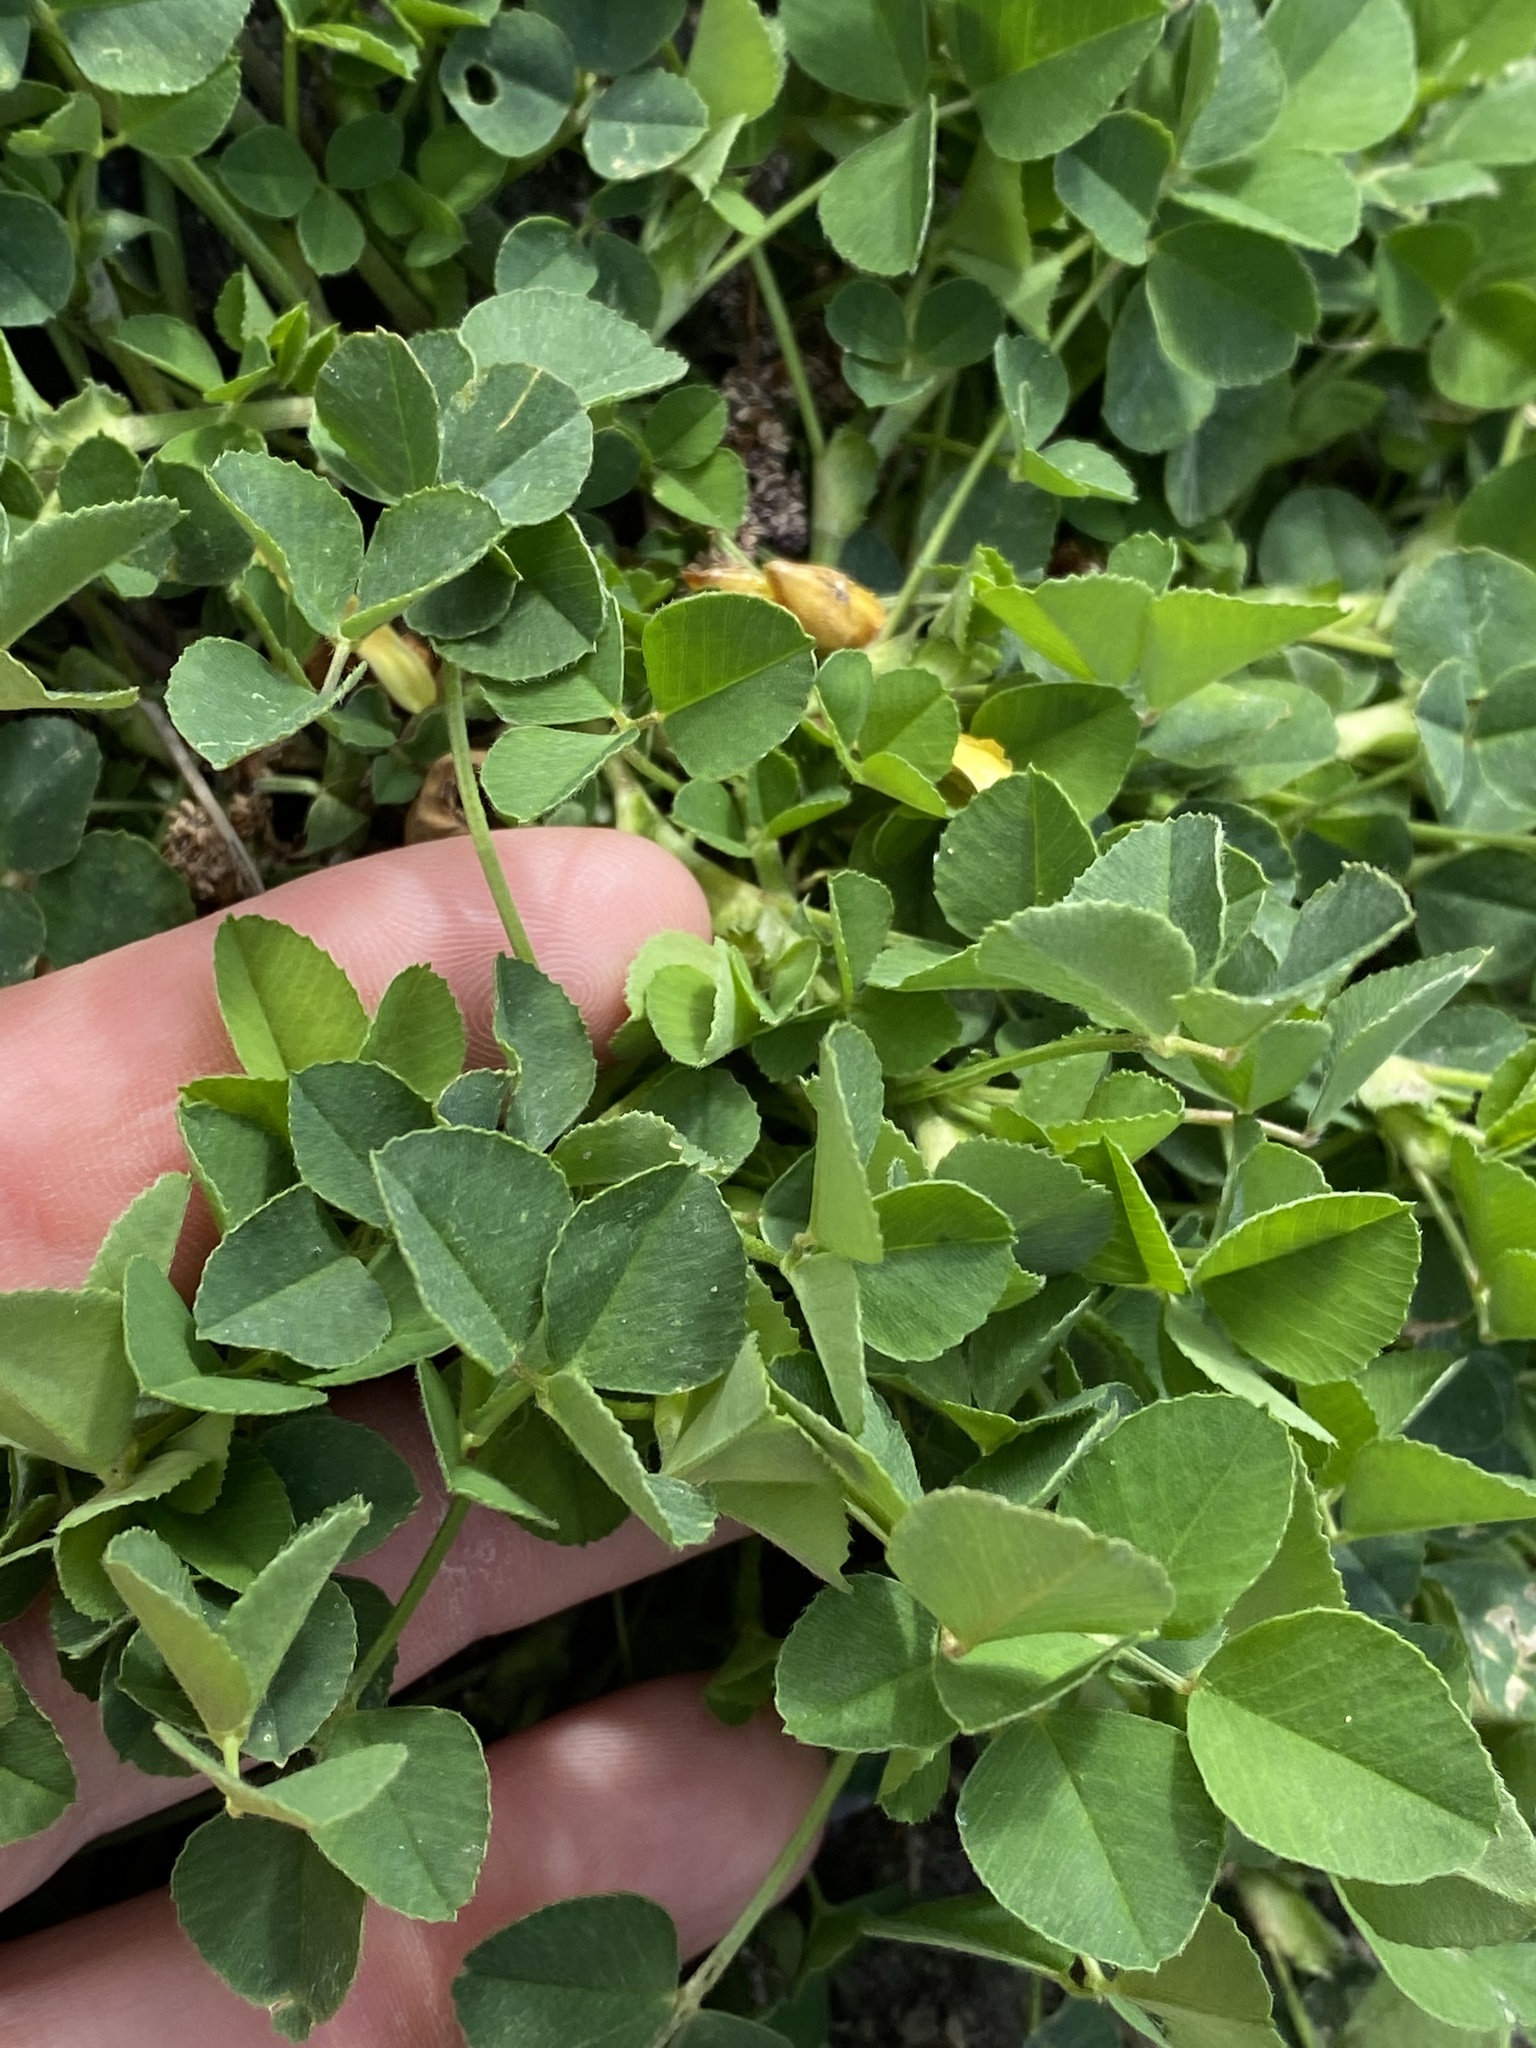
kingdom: Plantae
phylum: Tracheophyta
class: Magnoliopsida
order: Fabales
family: Fabaceae
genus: Medicago
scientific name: Medicago lupulina
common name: Black medick
